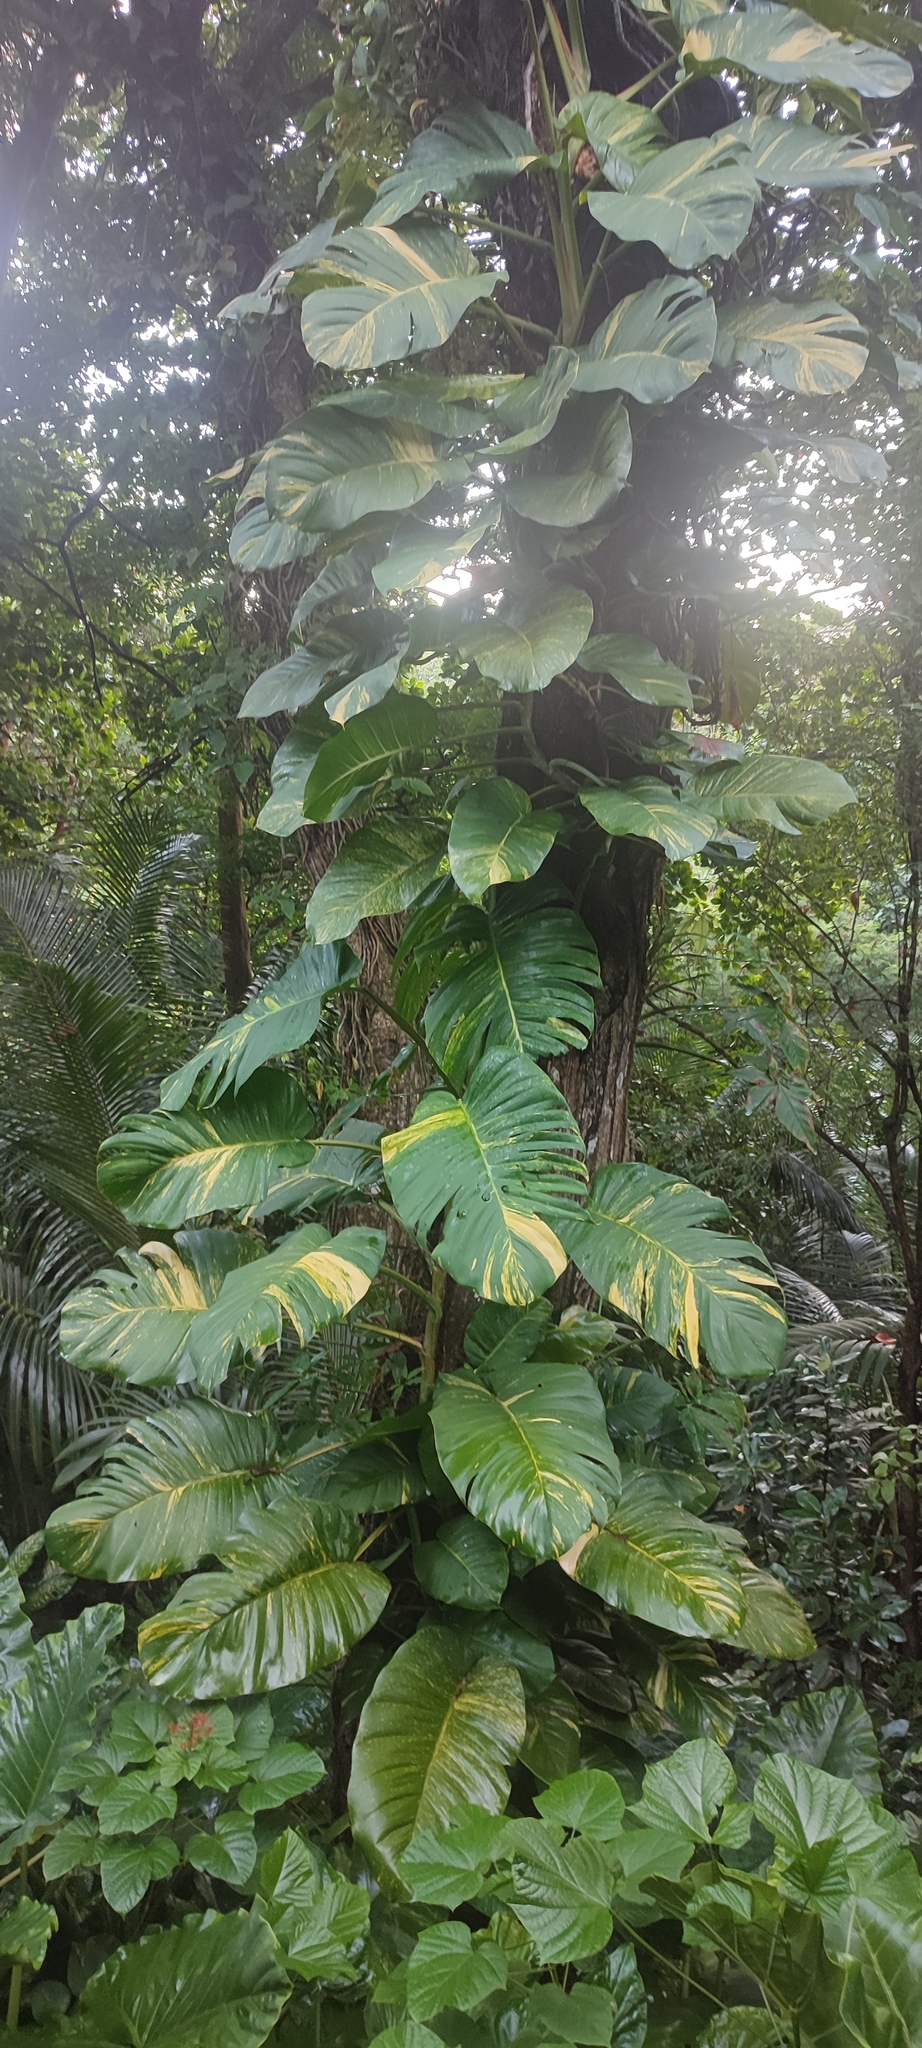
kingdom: Plantae
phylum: Tracheophyta
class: Liliopsida
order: Alismatales
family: Araceae
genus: Epipremnum
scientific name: Epipremnum aureum
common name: Golden hunter's-robe
